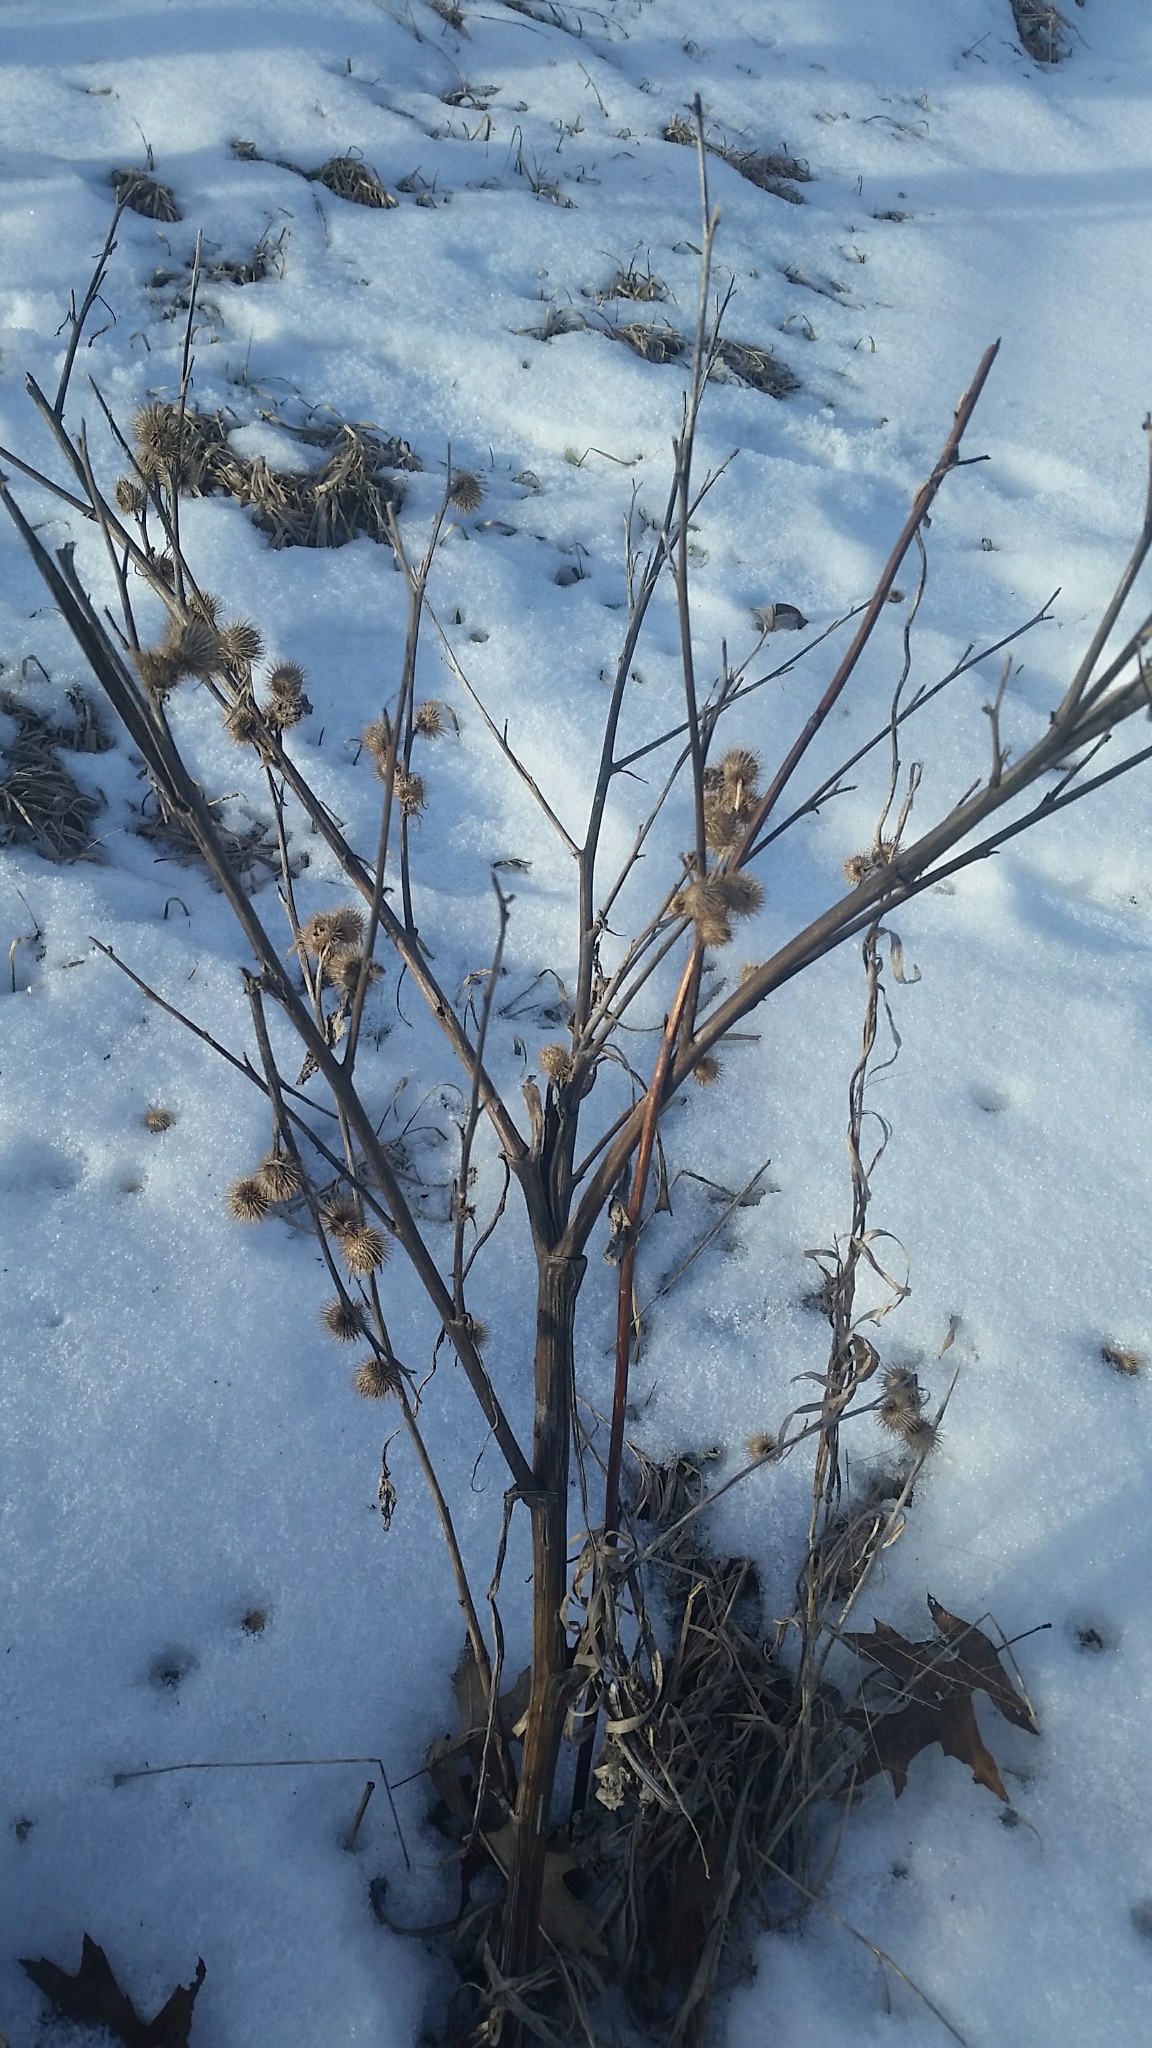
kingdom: Plantae
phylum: Tracheophyta
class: Magnoliopsida
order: Asterales
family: Asteraceae
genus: Arctium
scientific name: Arctium lappa
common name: Greater burdock
